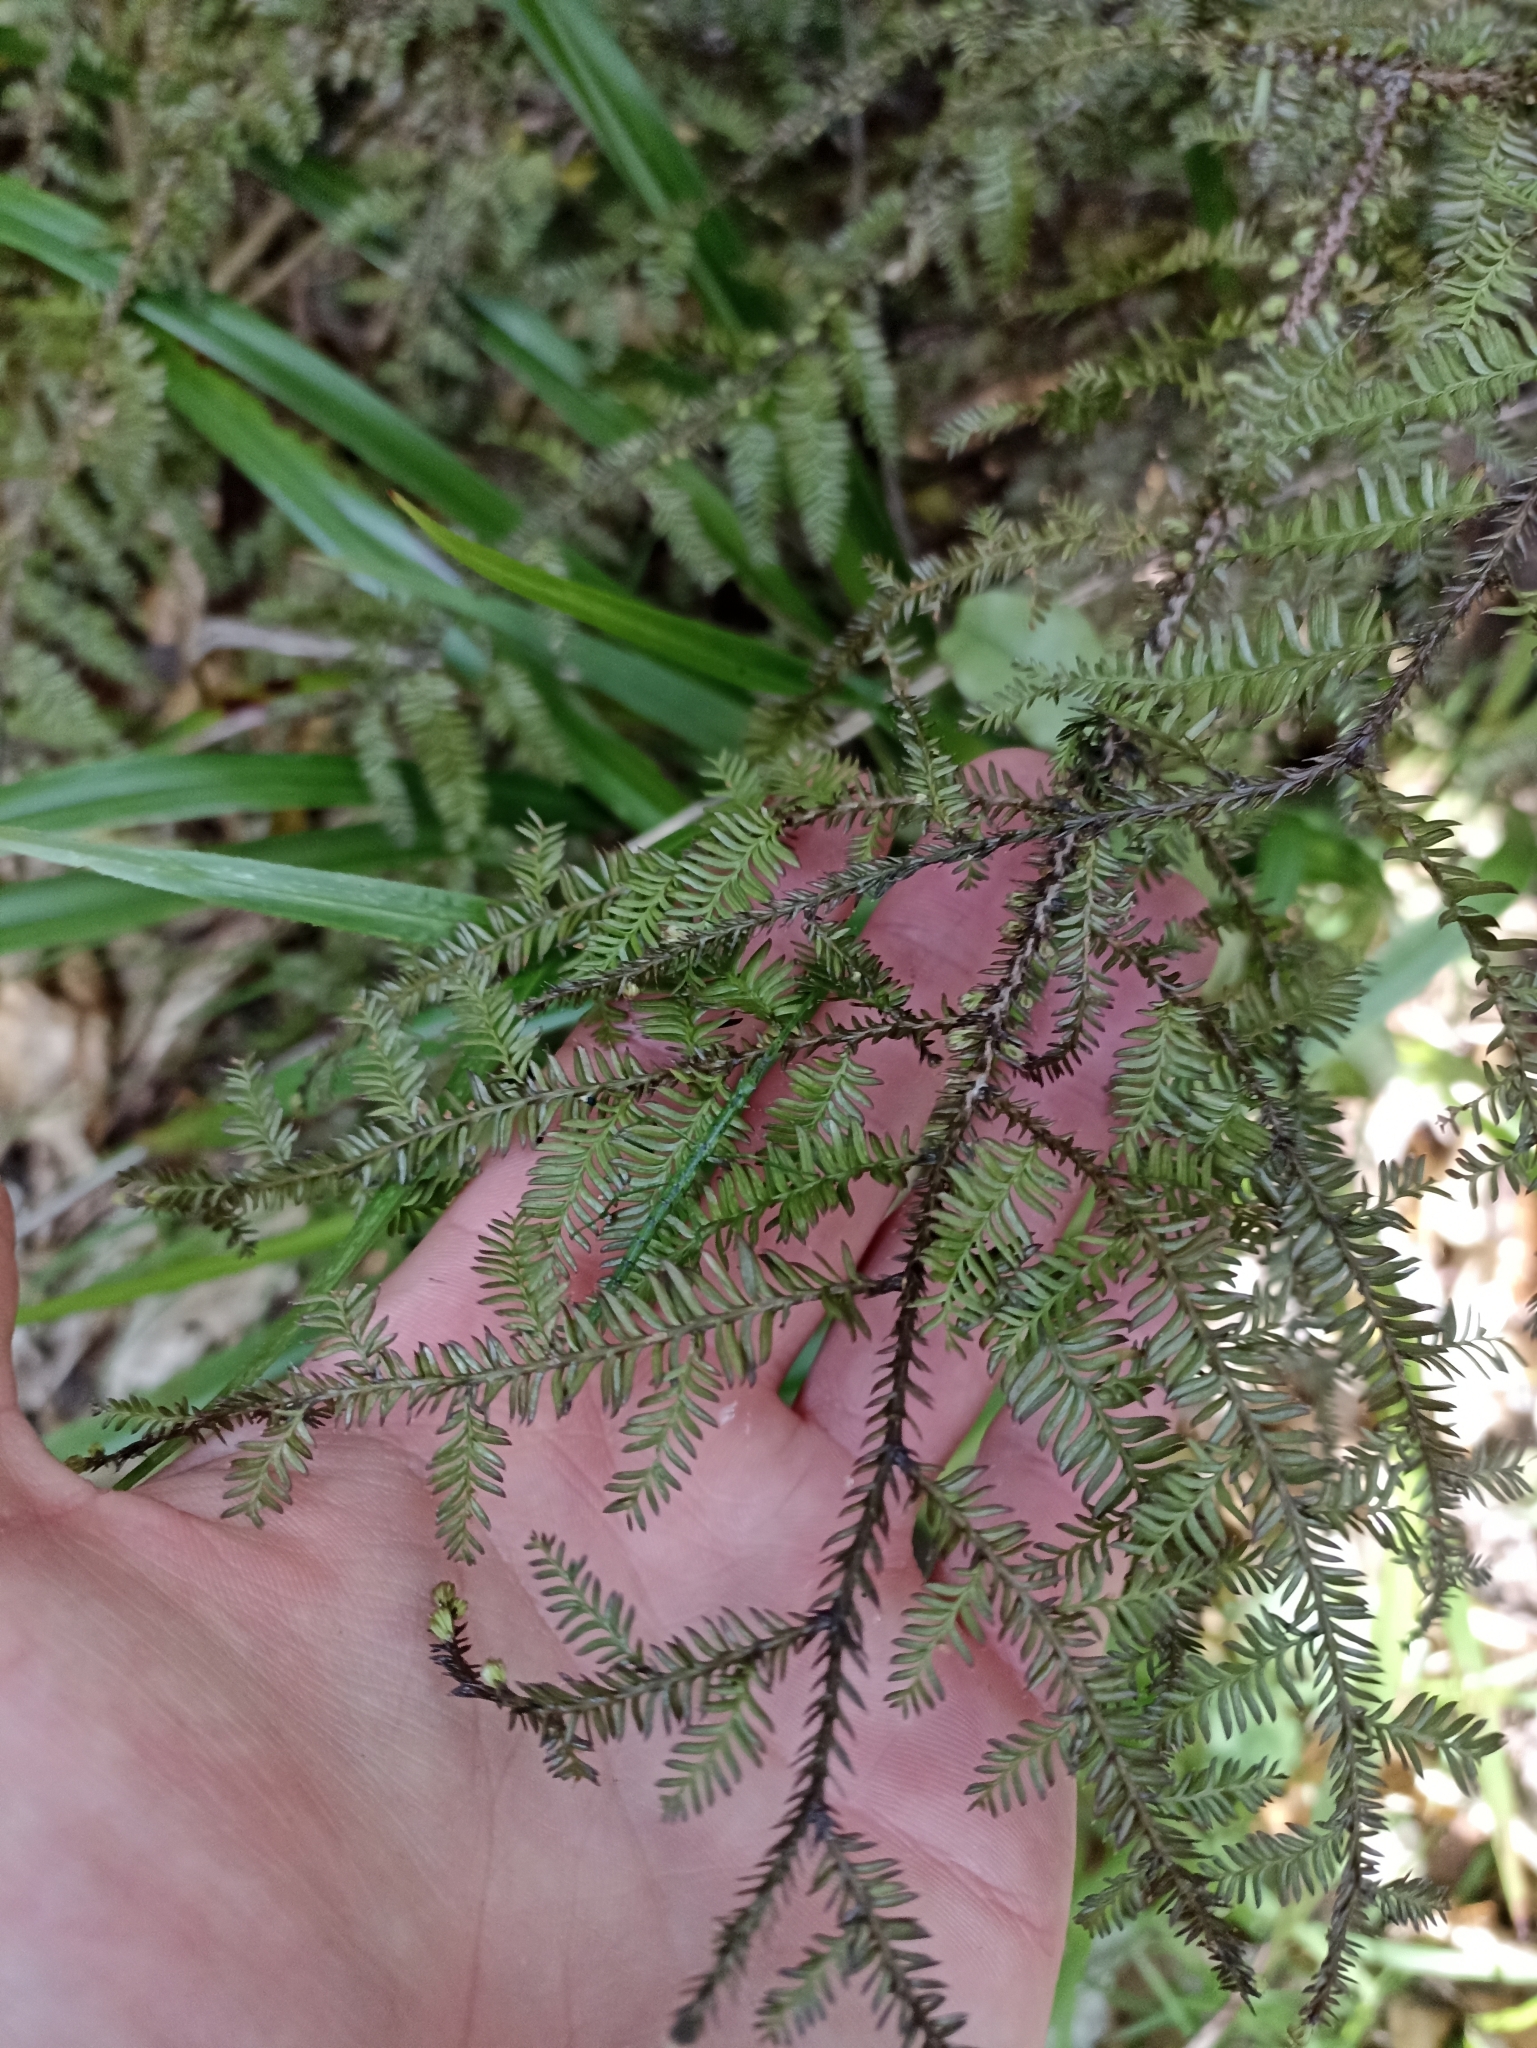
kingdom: Plantae
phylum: Tracheophyta
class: Pinopsida
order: Pinales
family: Podocarpaceae
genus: Dacrycarpus
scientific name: Dacrycarpus dacrydioides
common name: White pine
